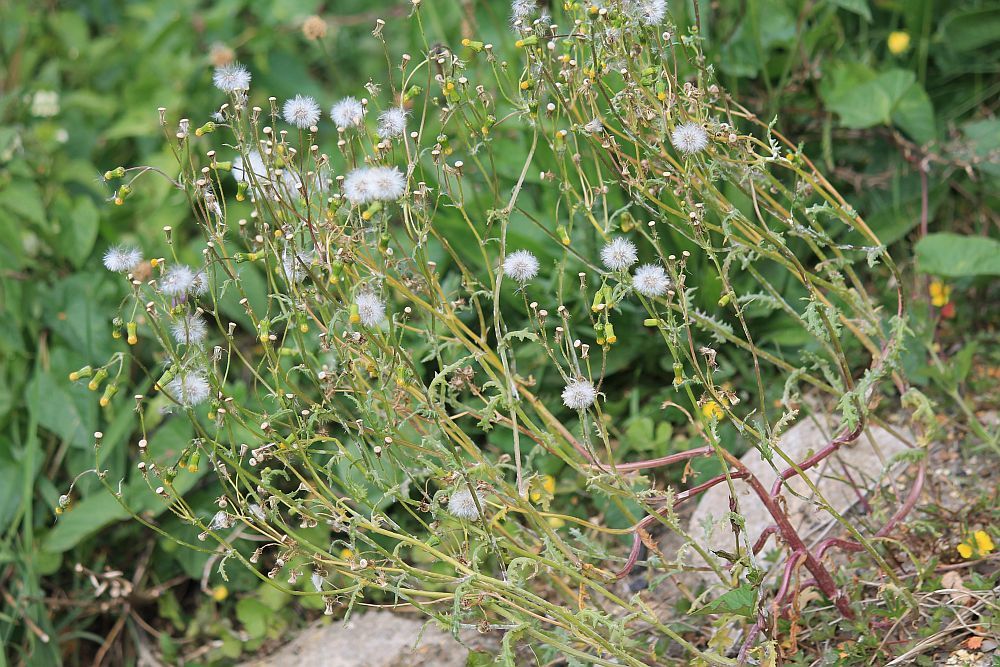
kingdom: Plantae
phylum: Tracheophyta
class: Magnoliopsida
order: Asterales
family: Asteraceae
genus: Senecio
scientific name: Senecio vulgaris
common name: Old-man-in-the-spring
